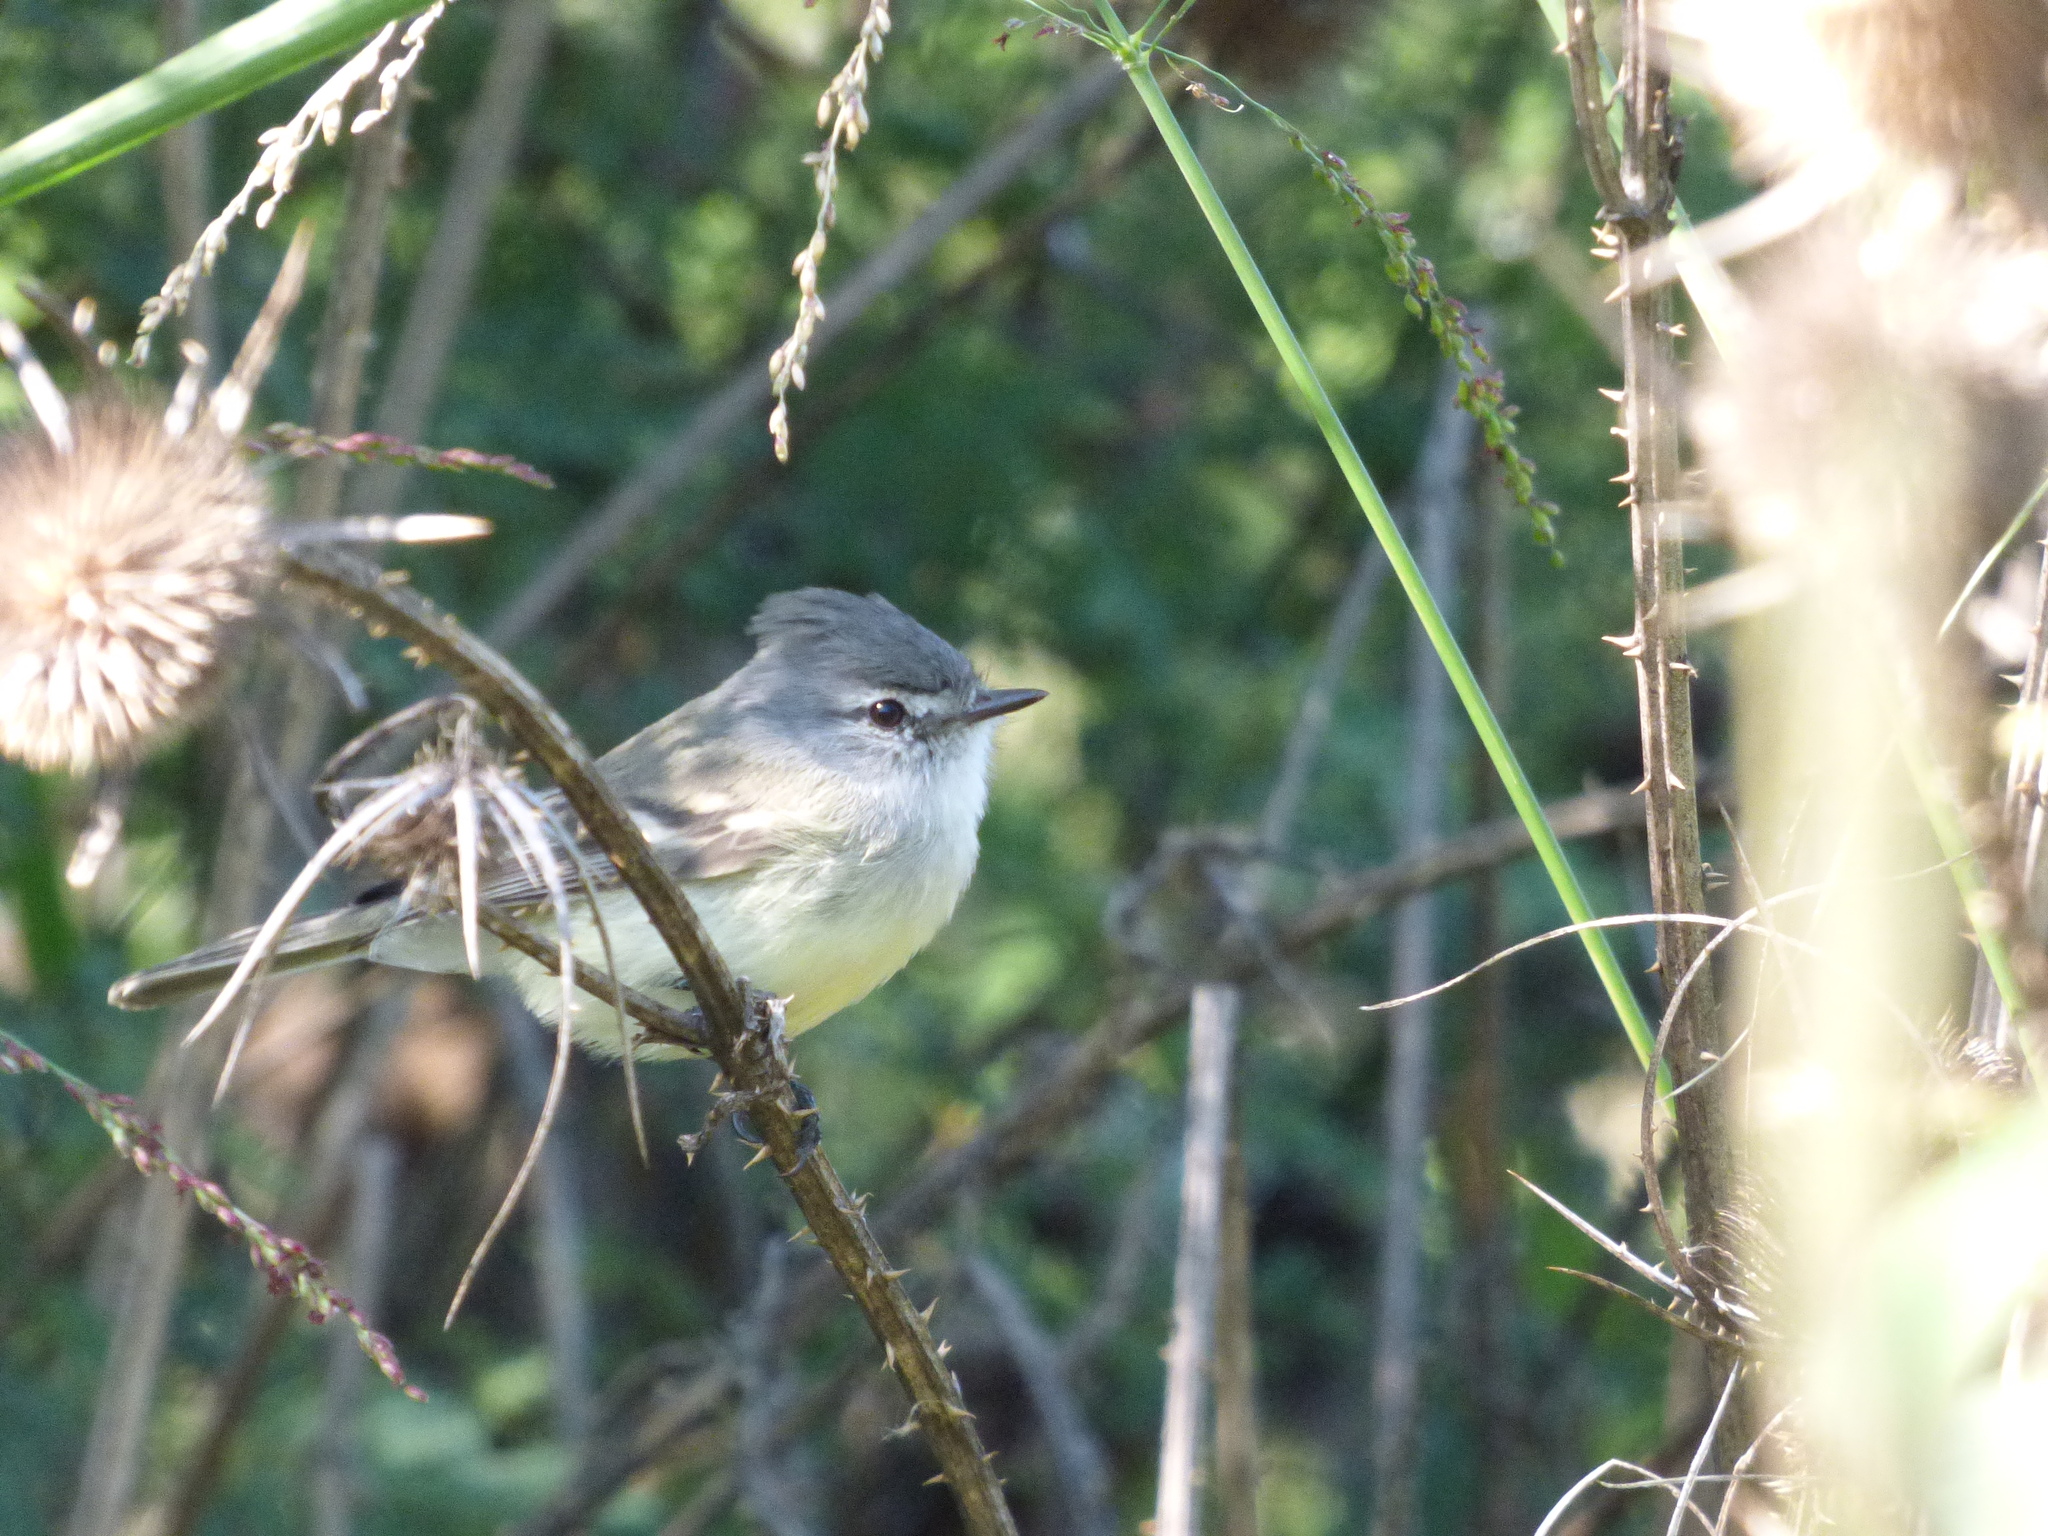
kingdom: Animalia
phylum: Chordata
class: Aves
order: Passeriformes
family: Tyrannidae
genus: Serpophaga
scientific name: Serpophaga subcristata
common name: White-crested tyrannulet
